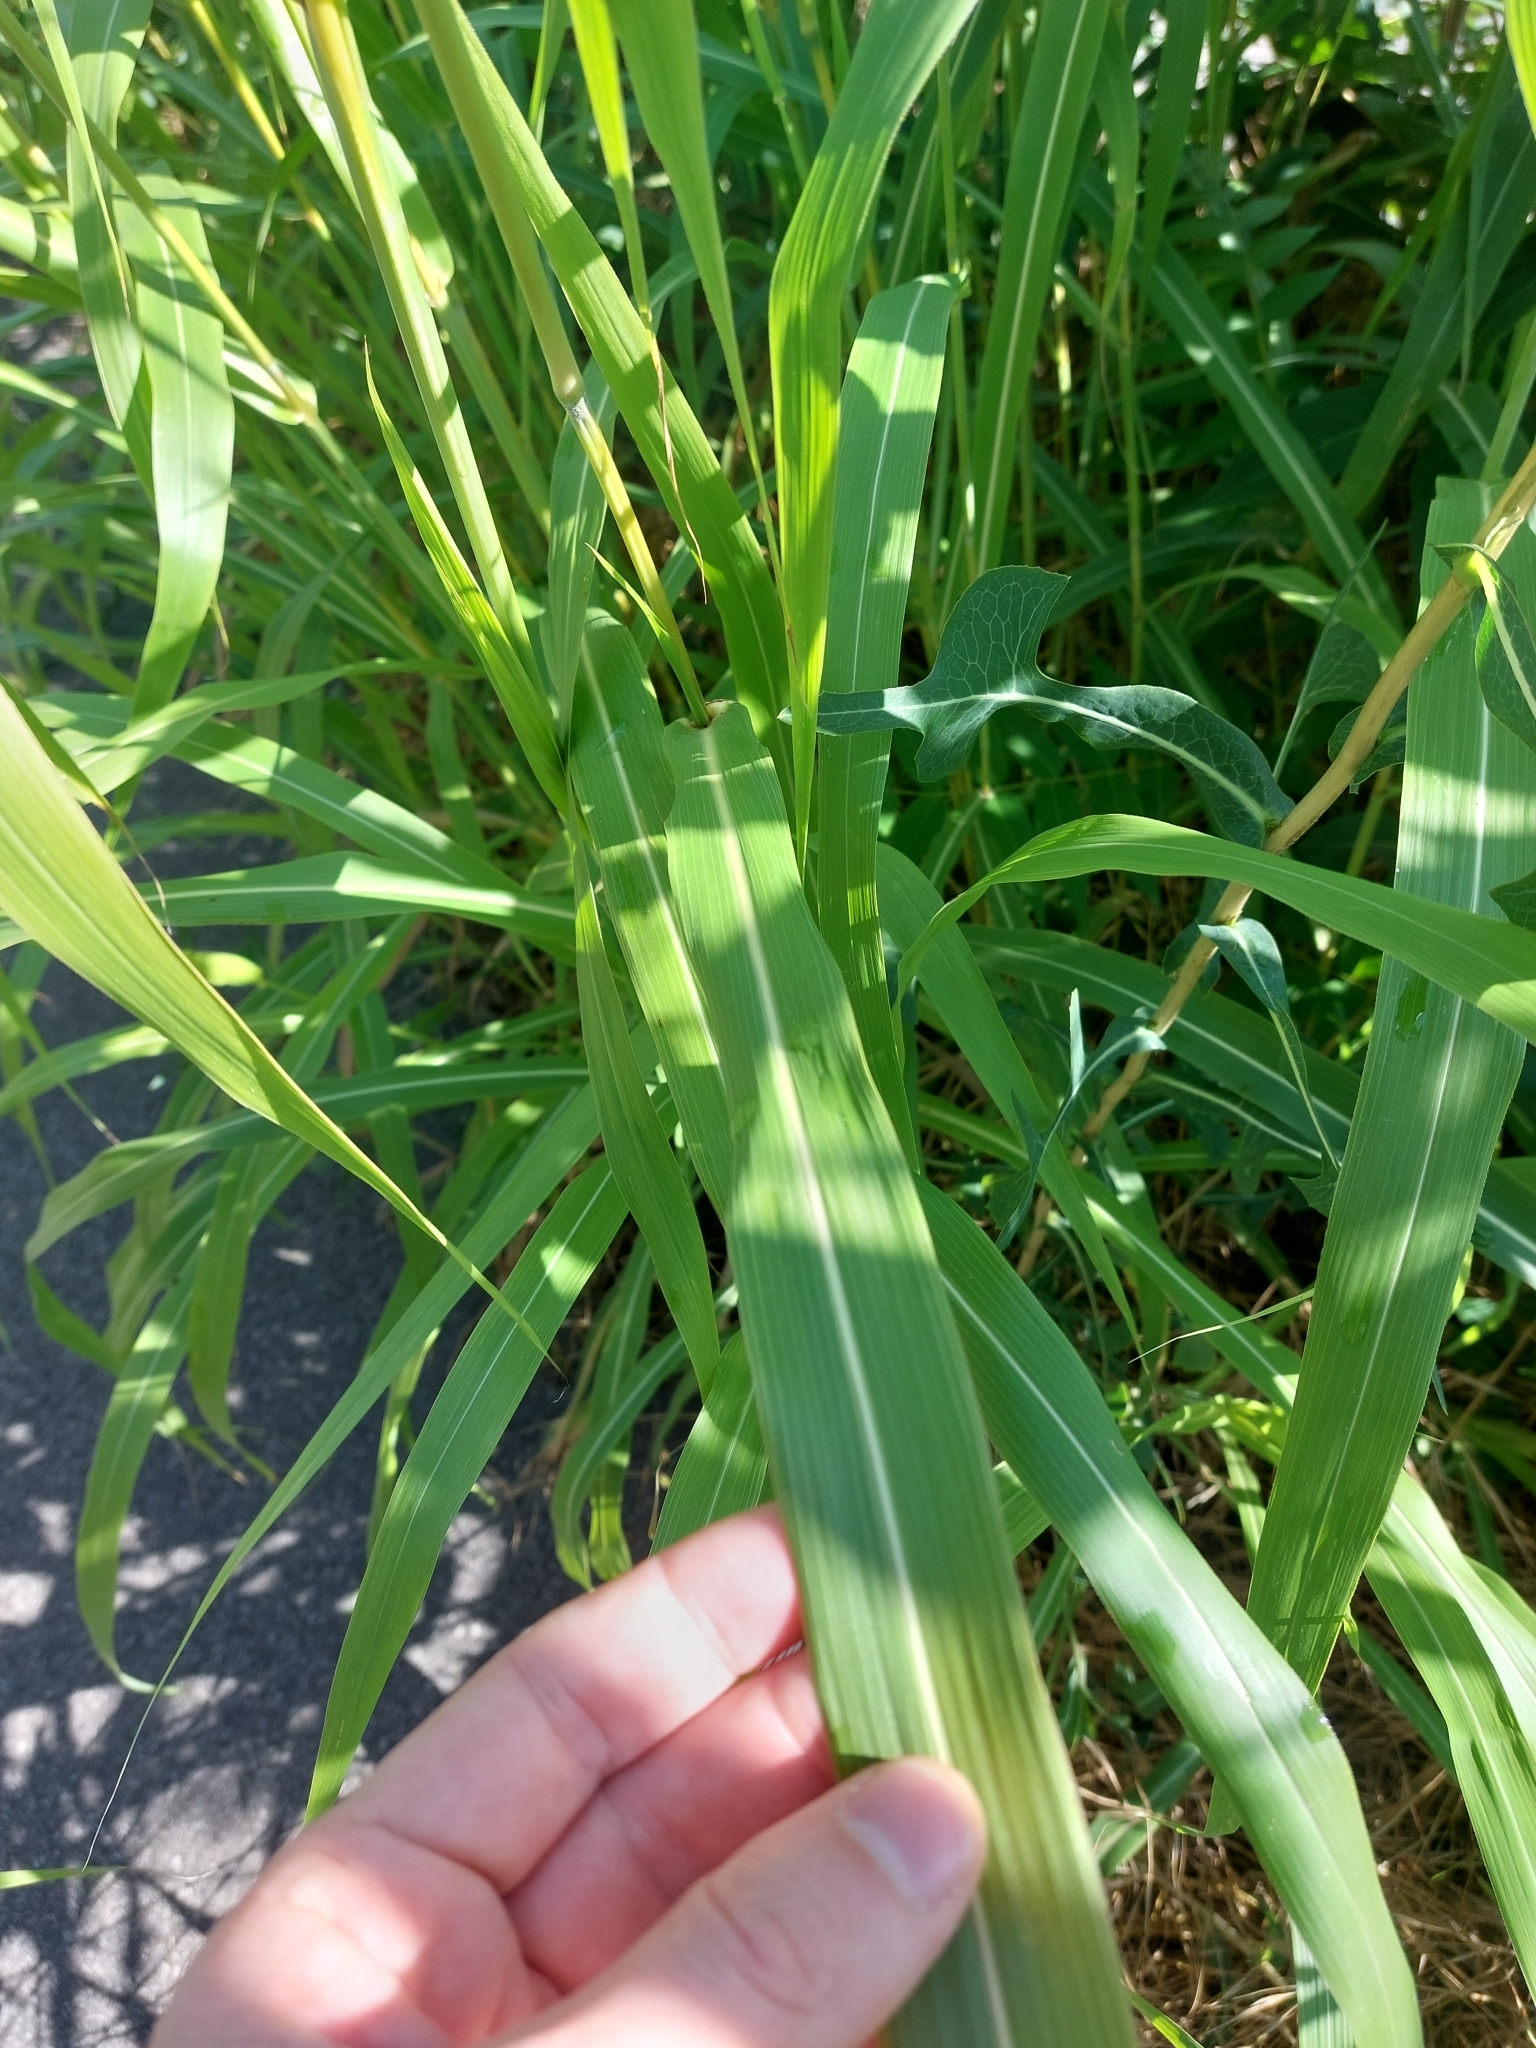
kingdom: Plantae
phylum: Tracheophyta
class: Liliopsida
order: Poales
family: Poaceae
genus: Sorghum
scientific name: Sorghum halepense
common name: Johnson-grass
